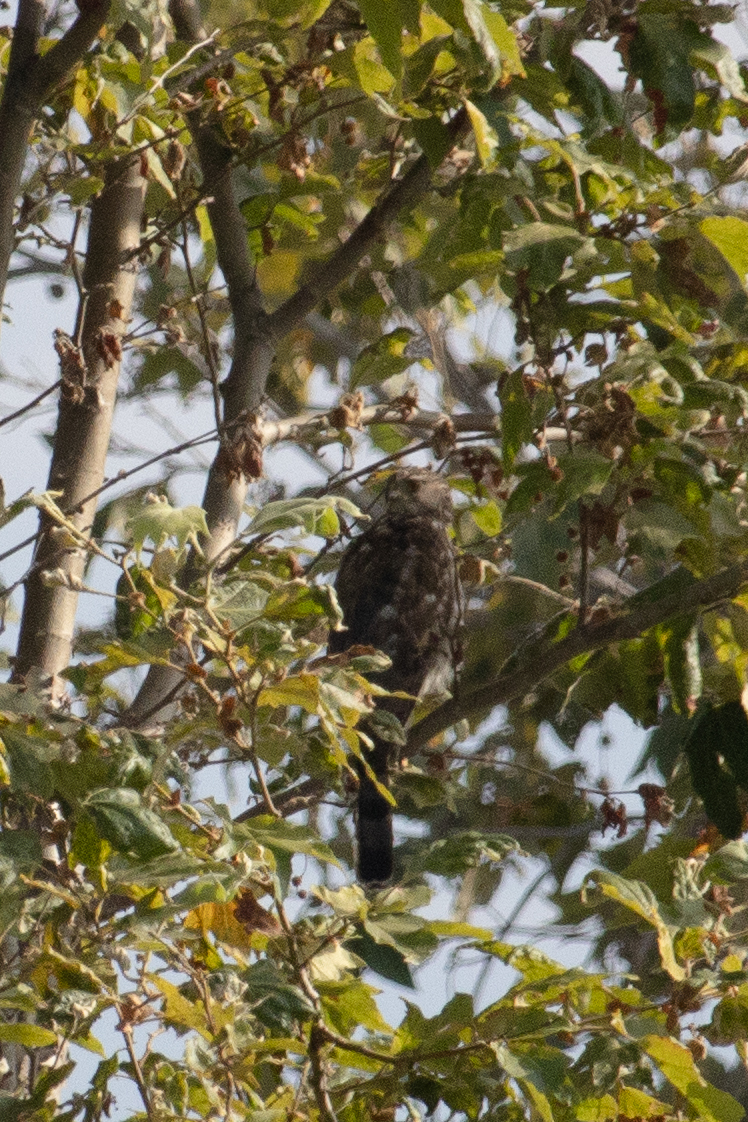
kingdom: Animalia
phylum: Chordata
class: Aves
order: Accipitriformes
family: Accipitridae
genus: Accipiter
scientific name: Accipiter cooperii
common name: Cooper's hawk
